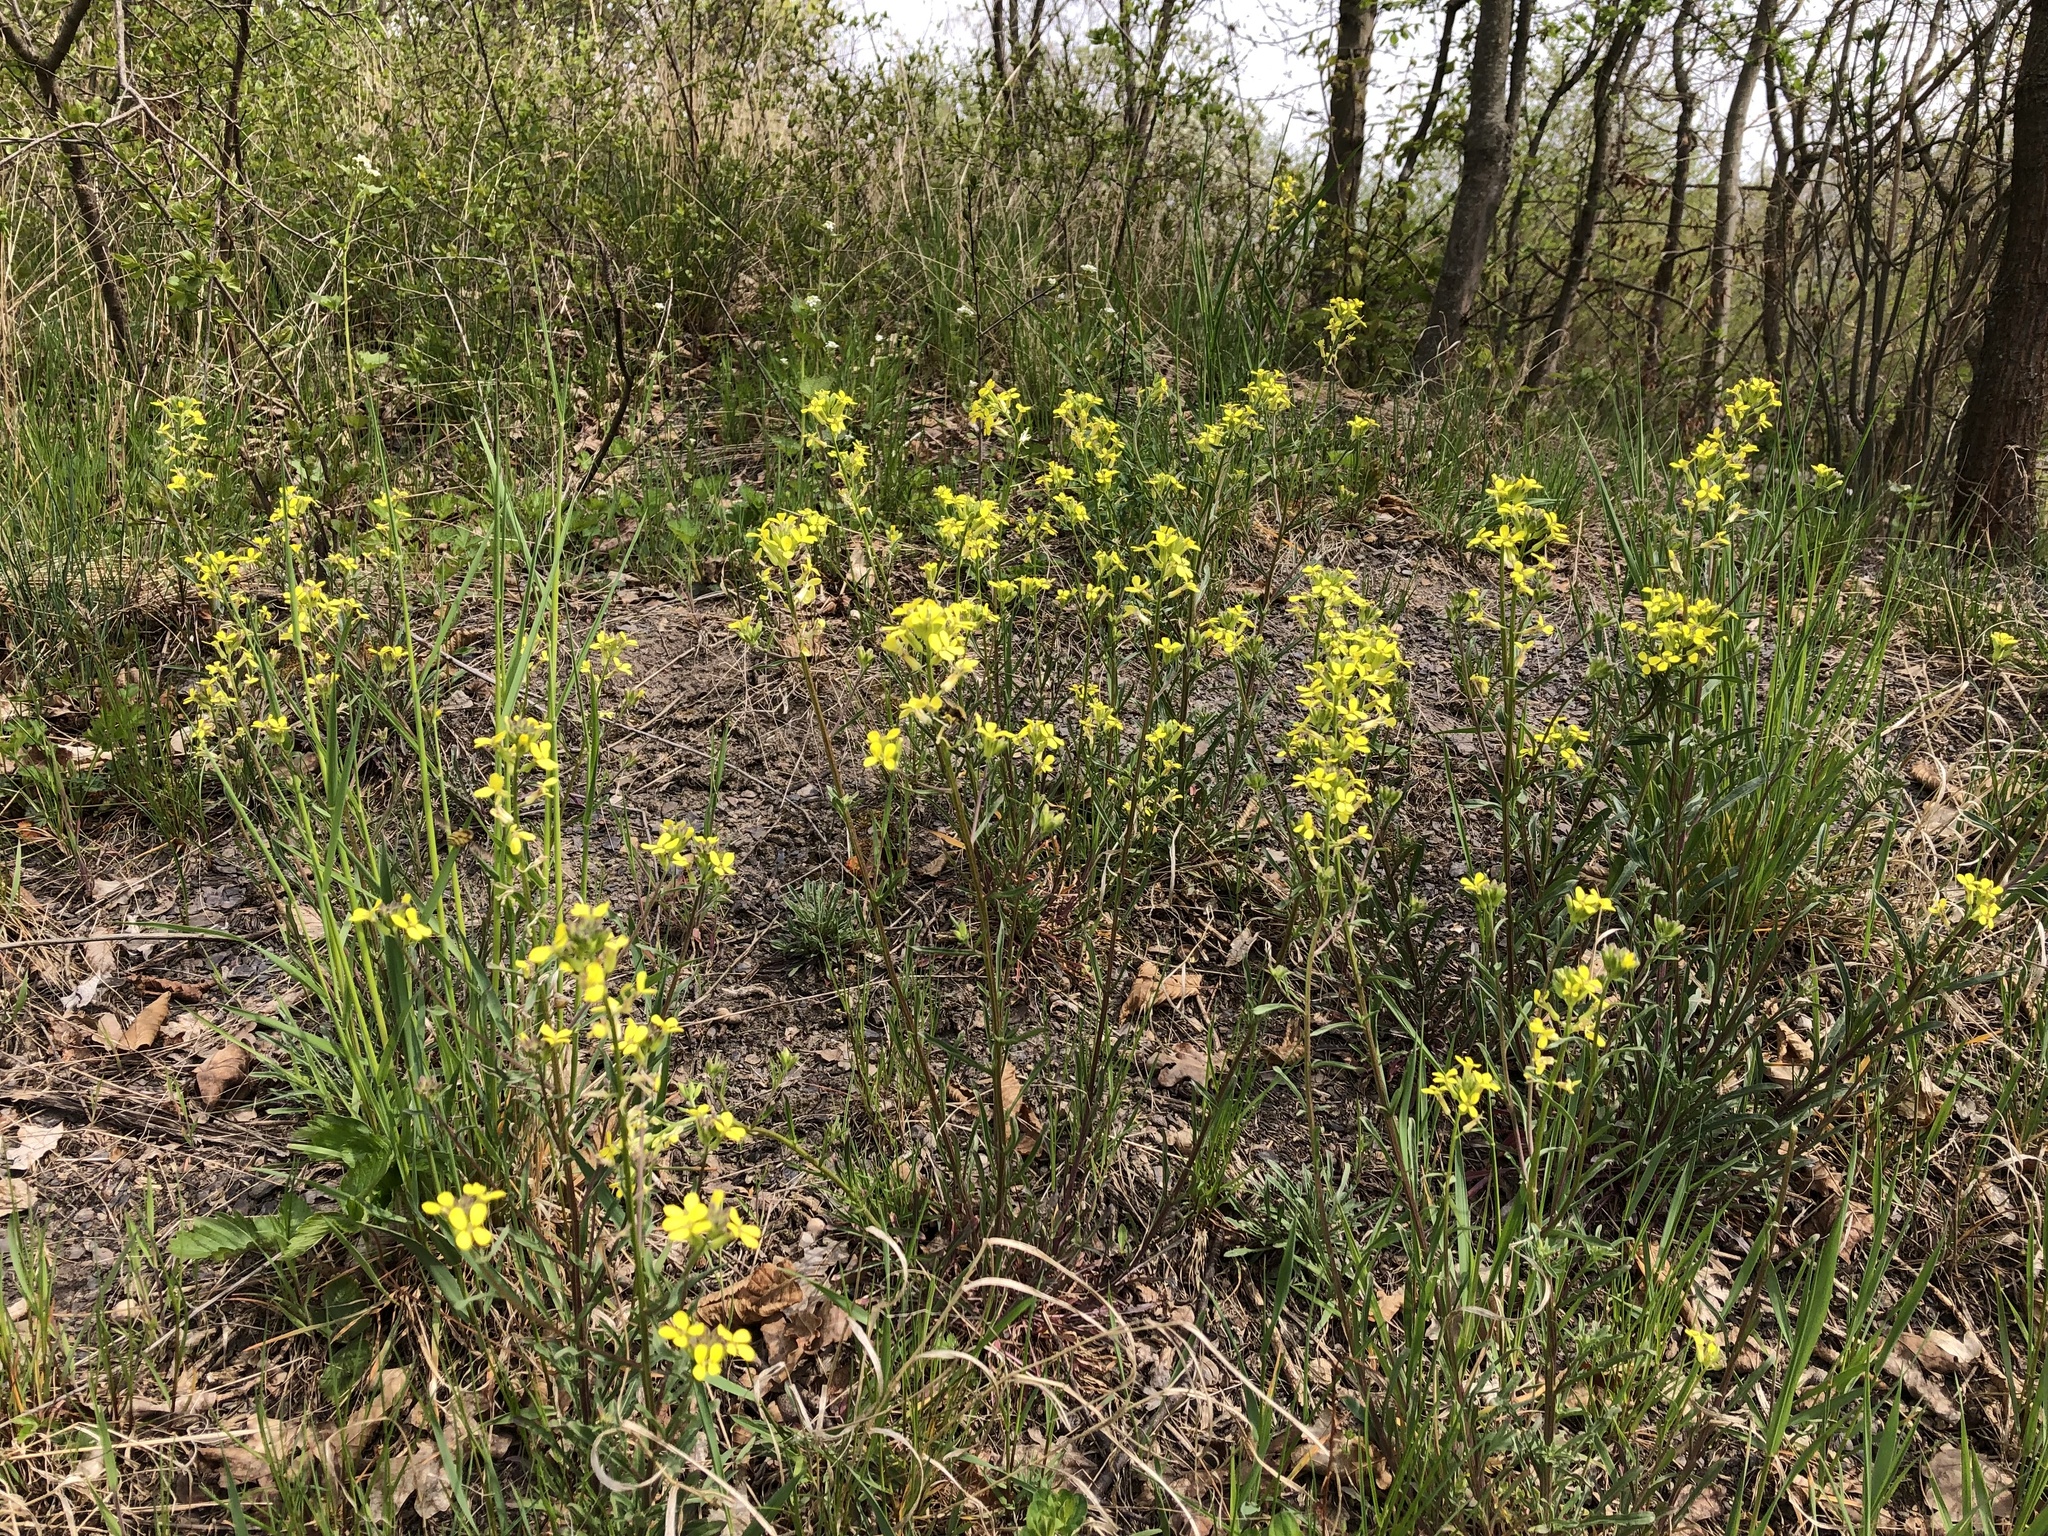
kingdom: Plantae
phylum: Tracheophyta
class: Magnoliopsida
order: Brassicales
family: Brassicaceae
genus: Erysimum
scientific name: Erysimum crepidifolium
